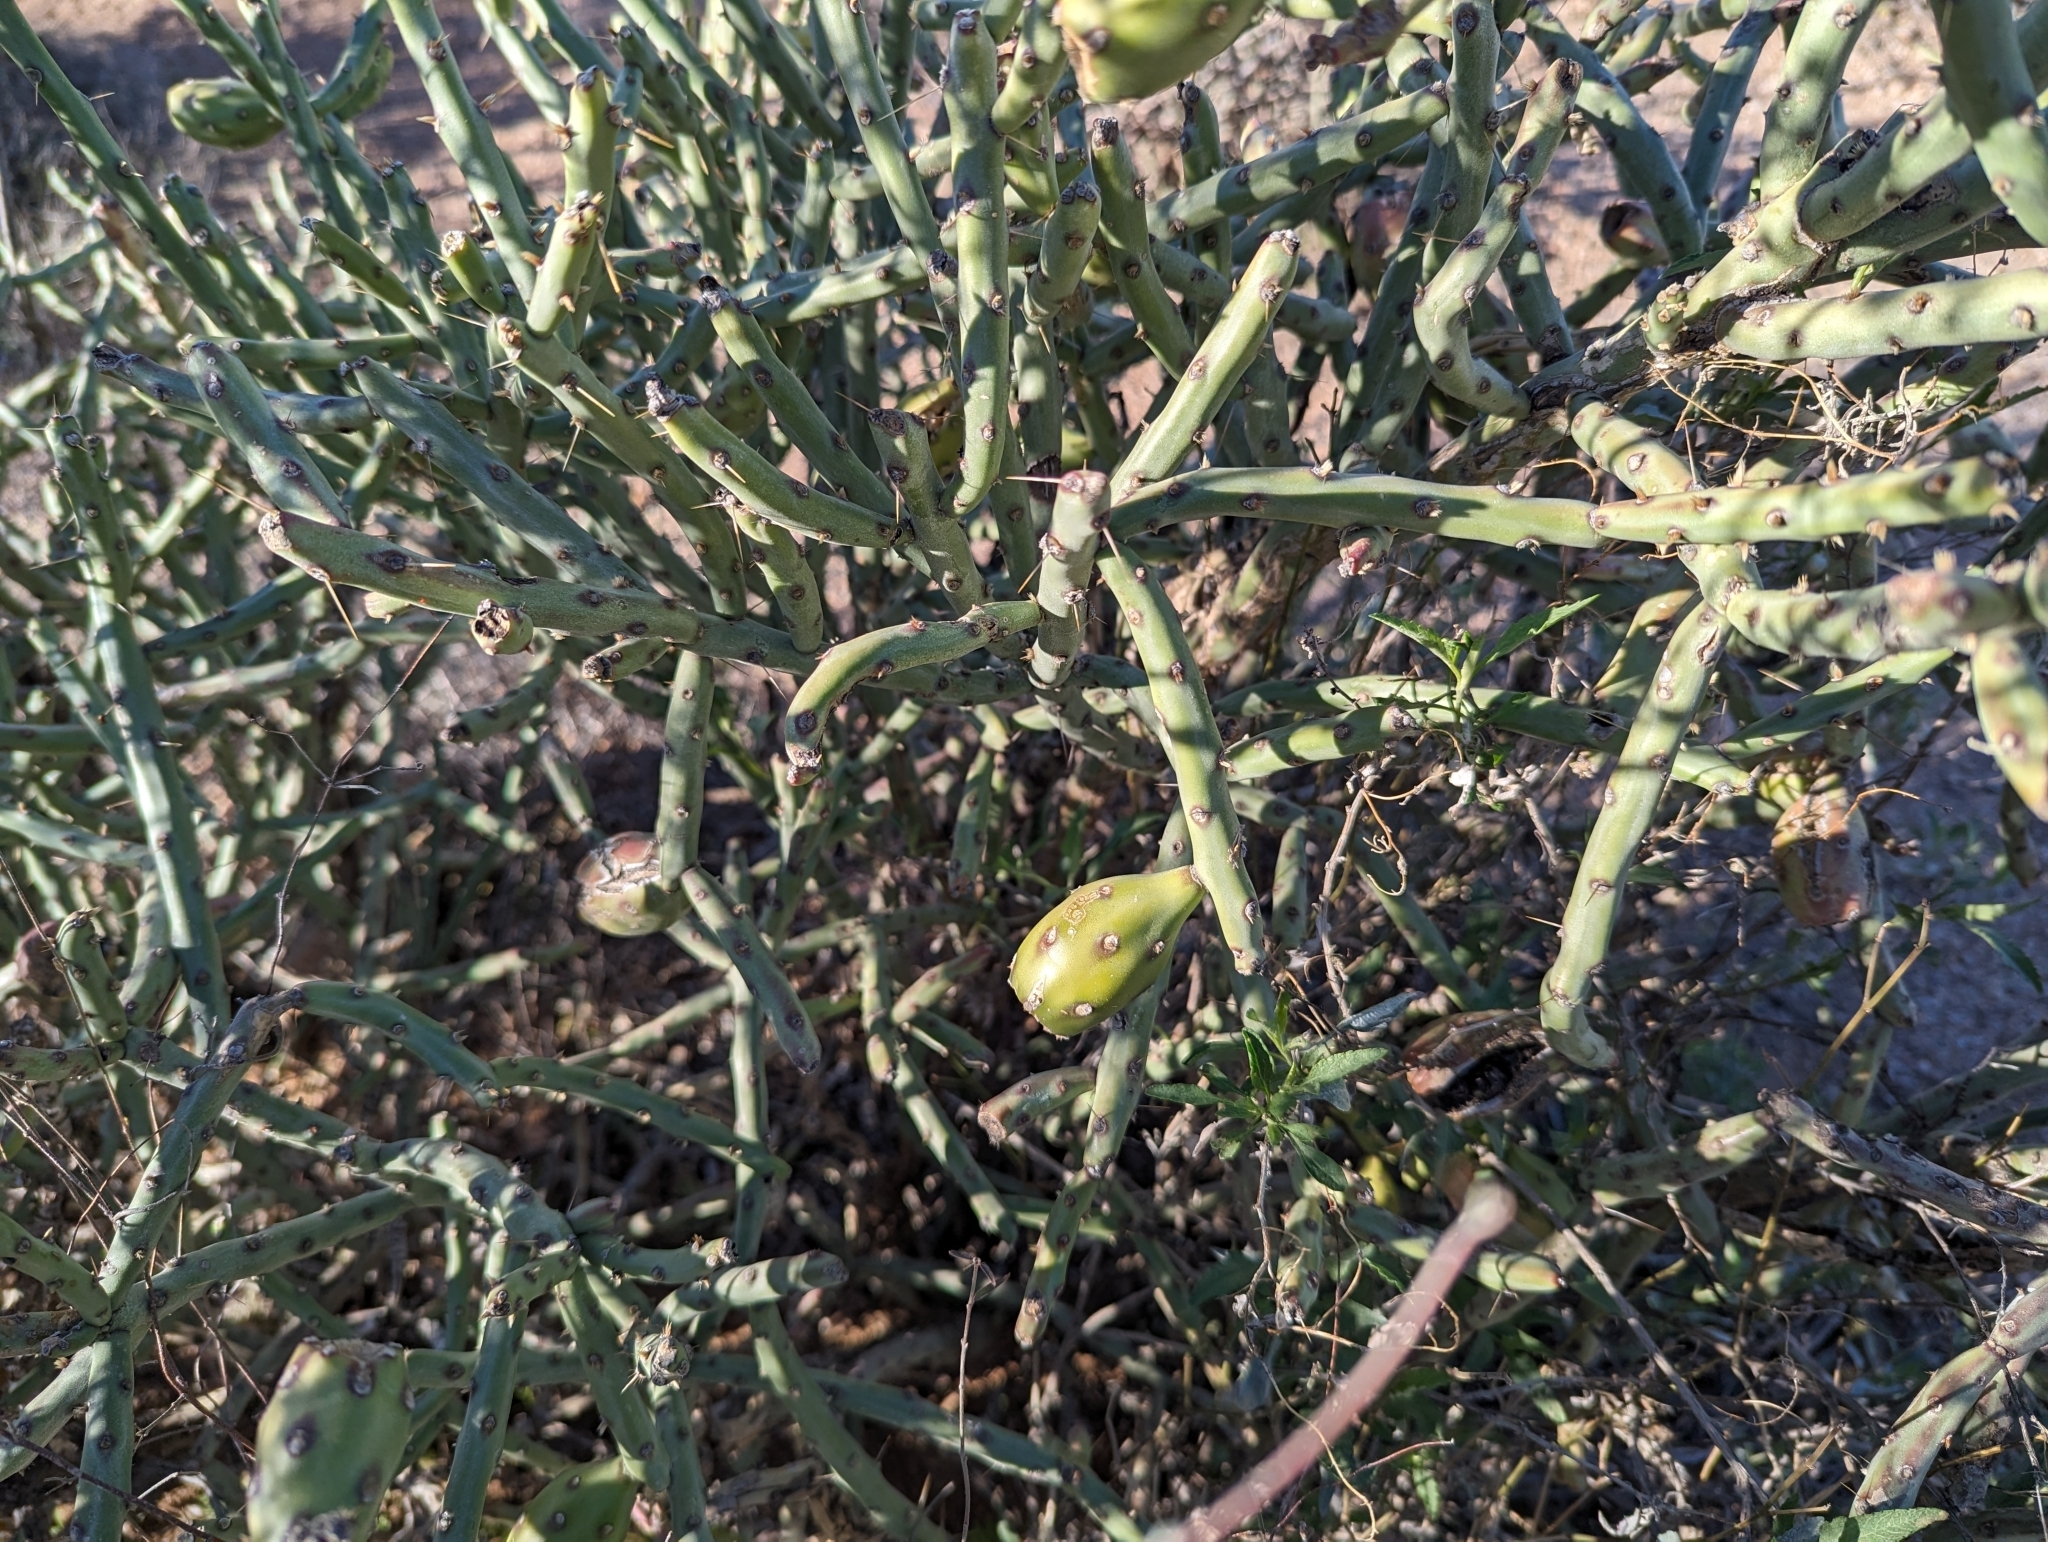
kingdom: Plantae
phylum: Tracheophyta
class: Magnoliopsida
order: Caryophyllales
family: Cactaceae
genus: Cylindropuntia
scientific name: Cylindropuntia arbuscula
